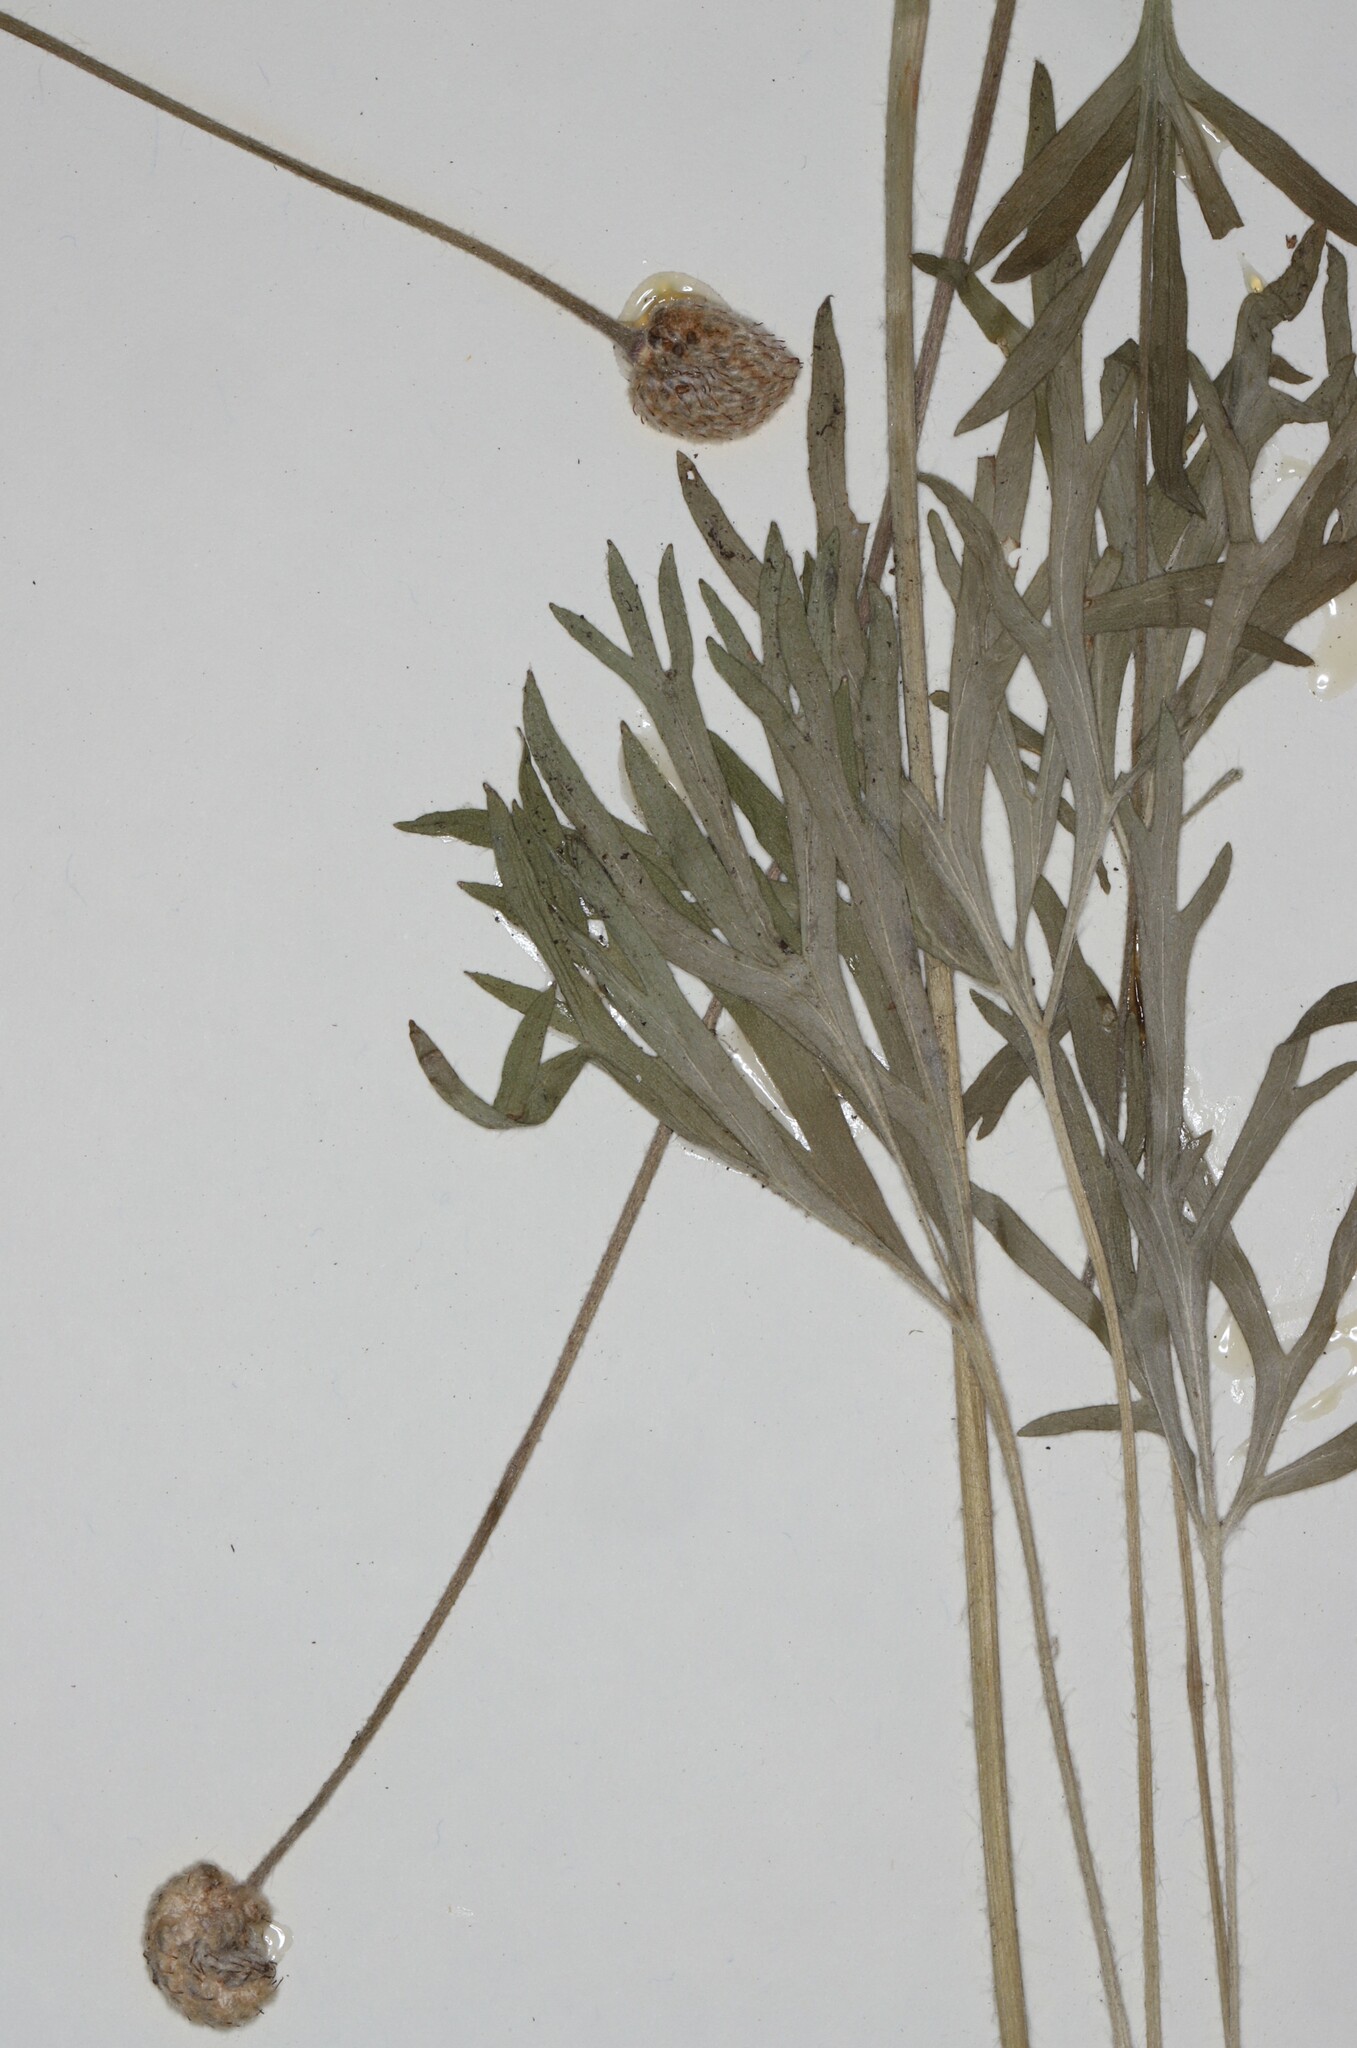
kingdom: Plantae
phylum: Tracheophyta
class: Magnoliopsida
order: Ranunculales
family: Ranunculaceae
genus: Anemone
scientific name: Anemone multifida
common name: Bird's-foot anemone
